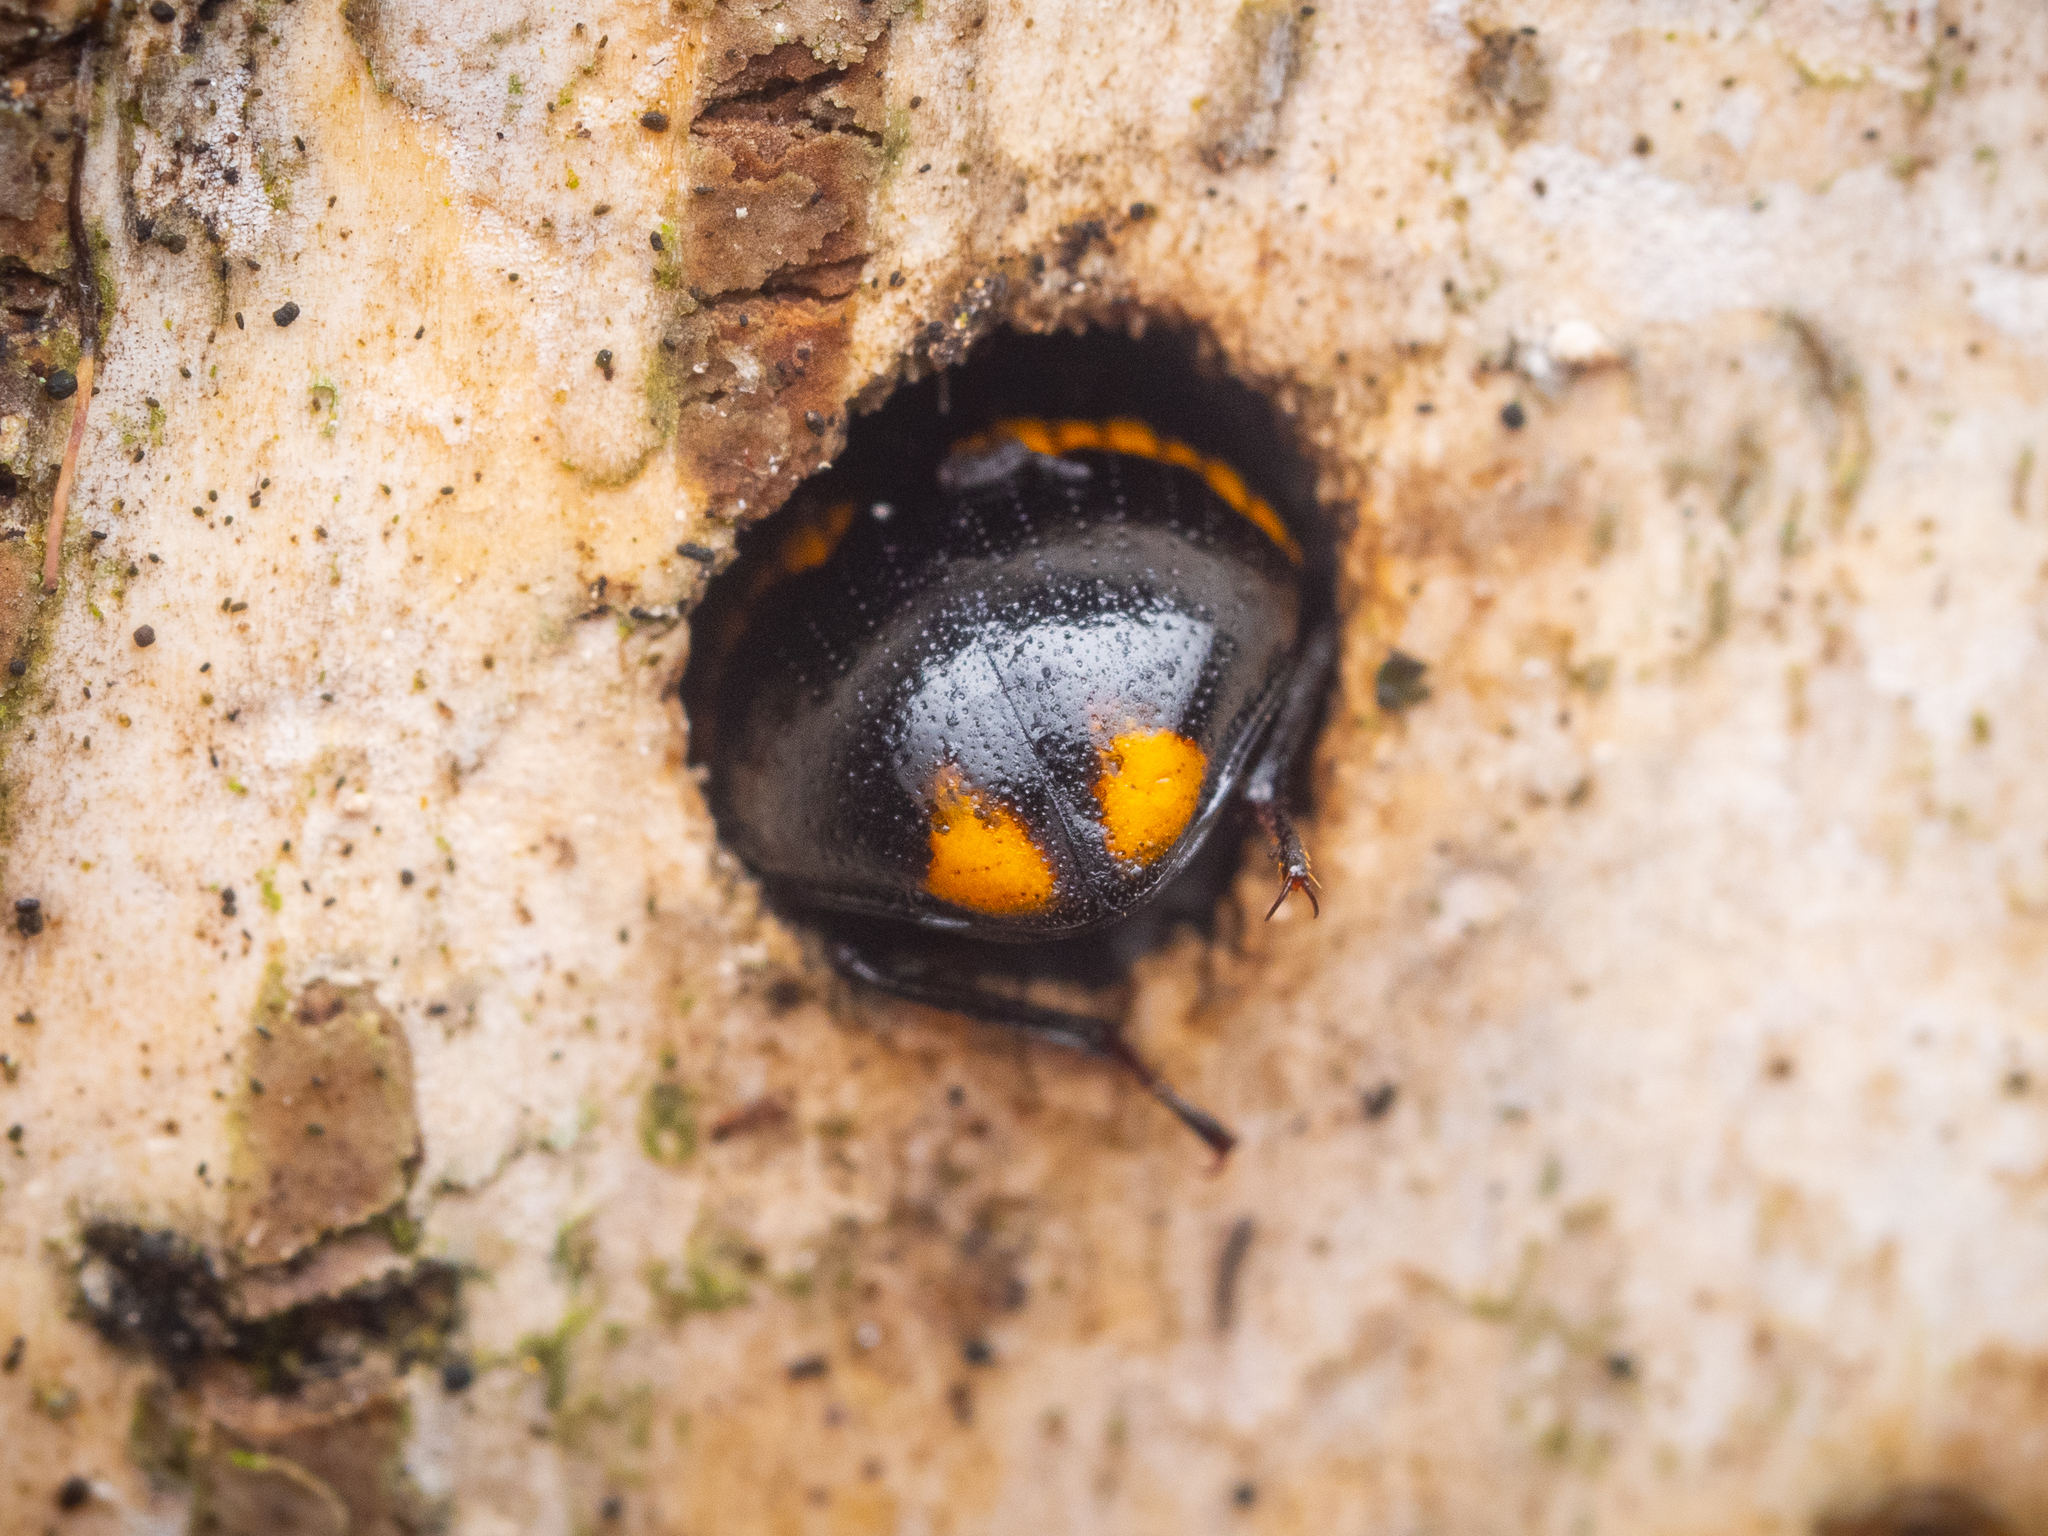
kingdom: Animalia
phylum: Arthropoda
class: Insecta
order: Coleoptera
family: Tenebrionidae
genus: Diaperis
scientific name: Diaperis boleti
